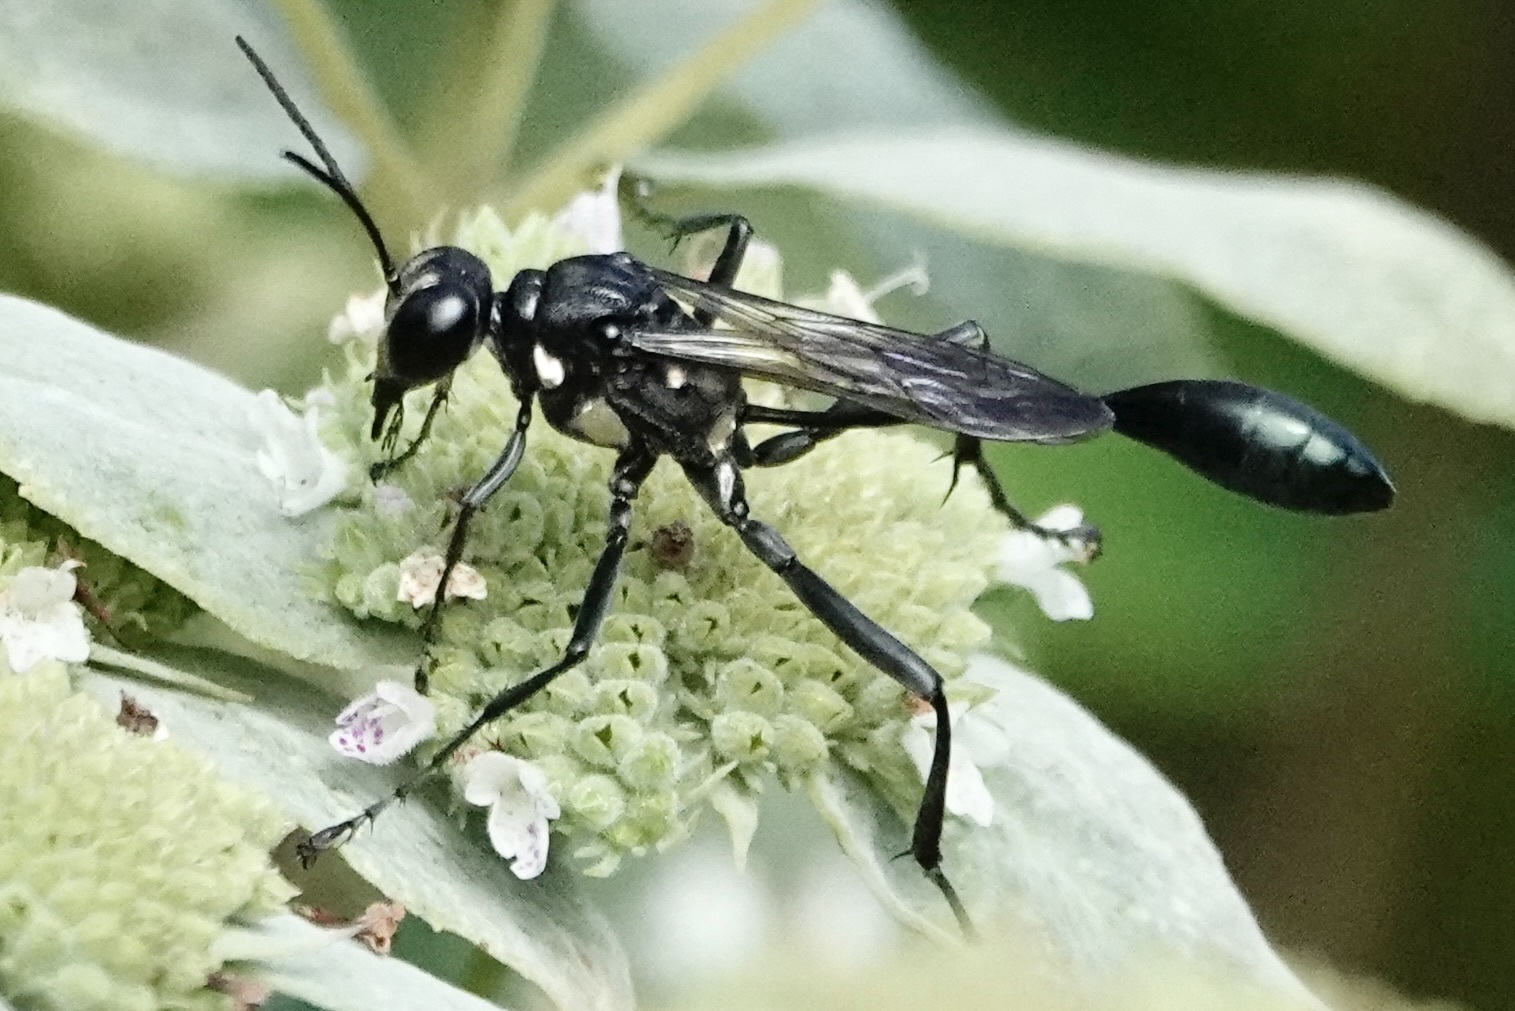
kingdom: Animalia
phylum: Arthropoda
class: Insecta
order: Hymenoptera
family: Sphecidae
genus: Eremnophila
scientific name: Eremnophila aureonotata
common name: Gold-marked thread-waisted wasp
